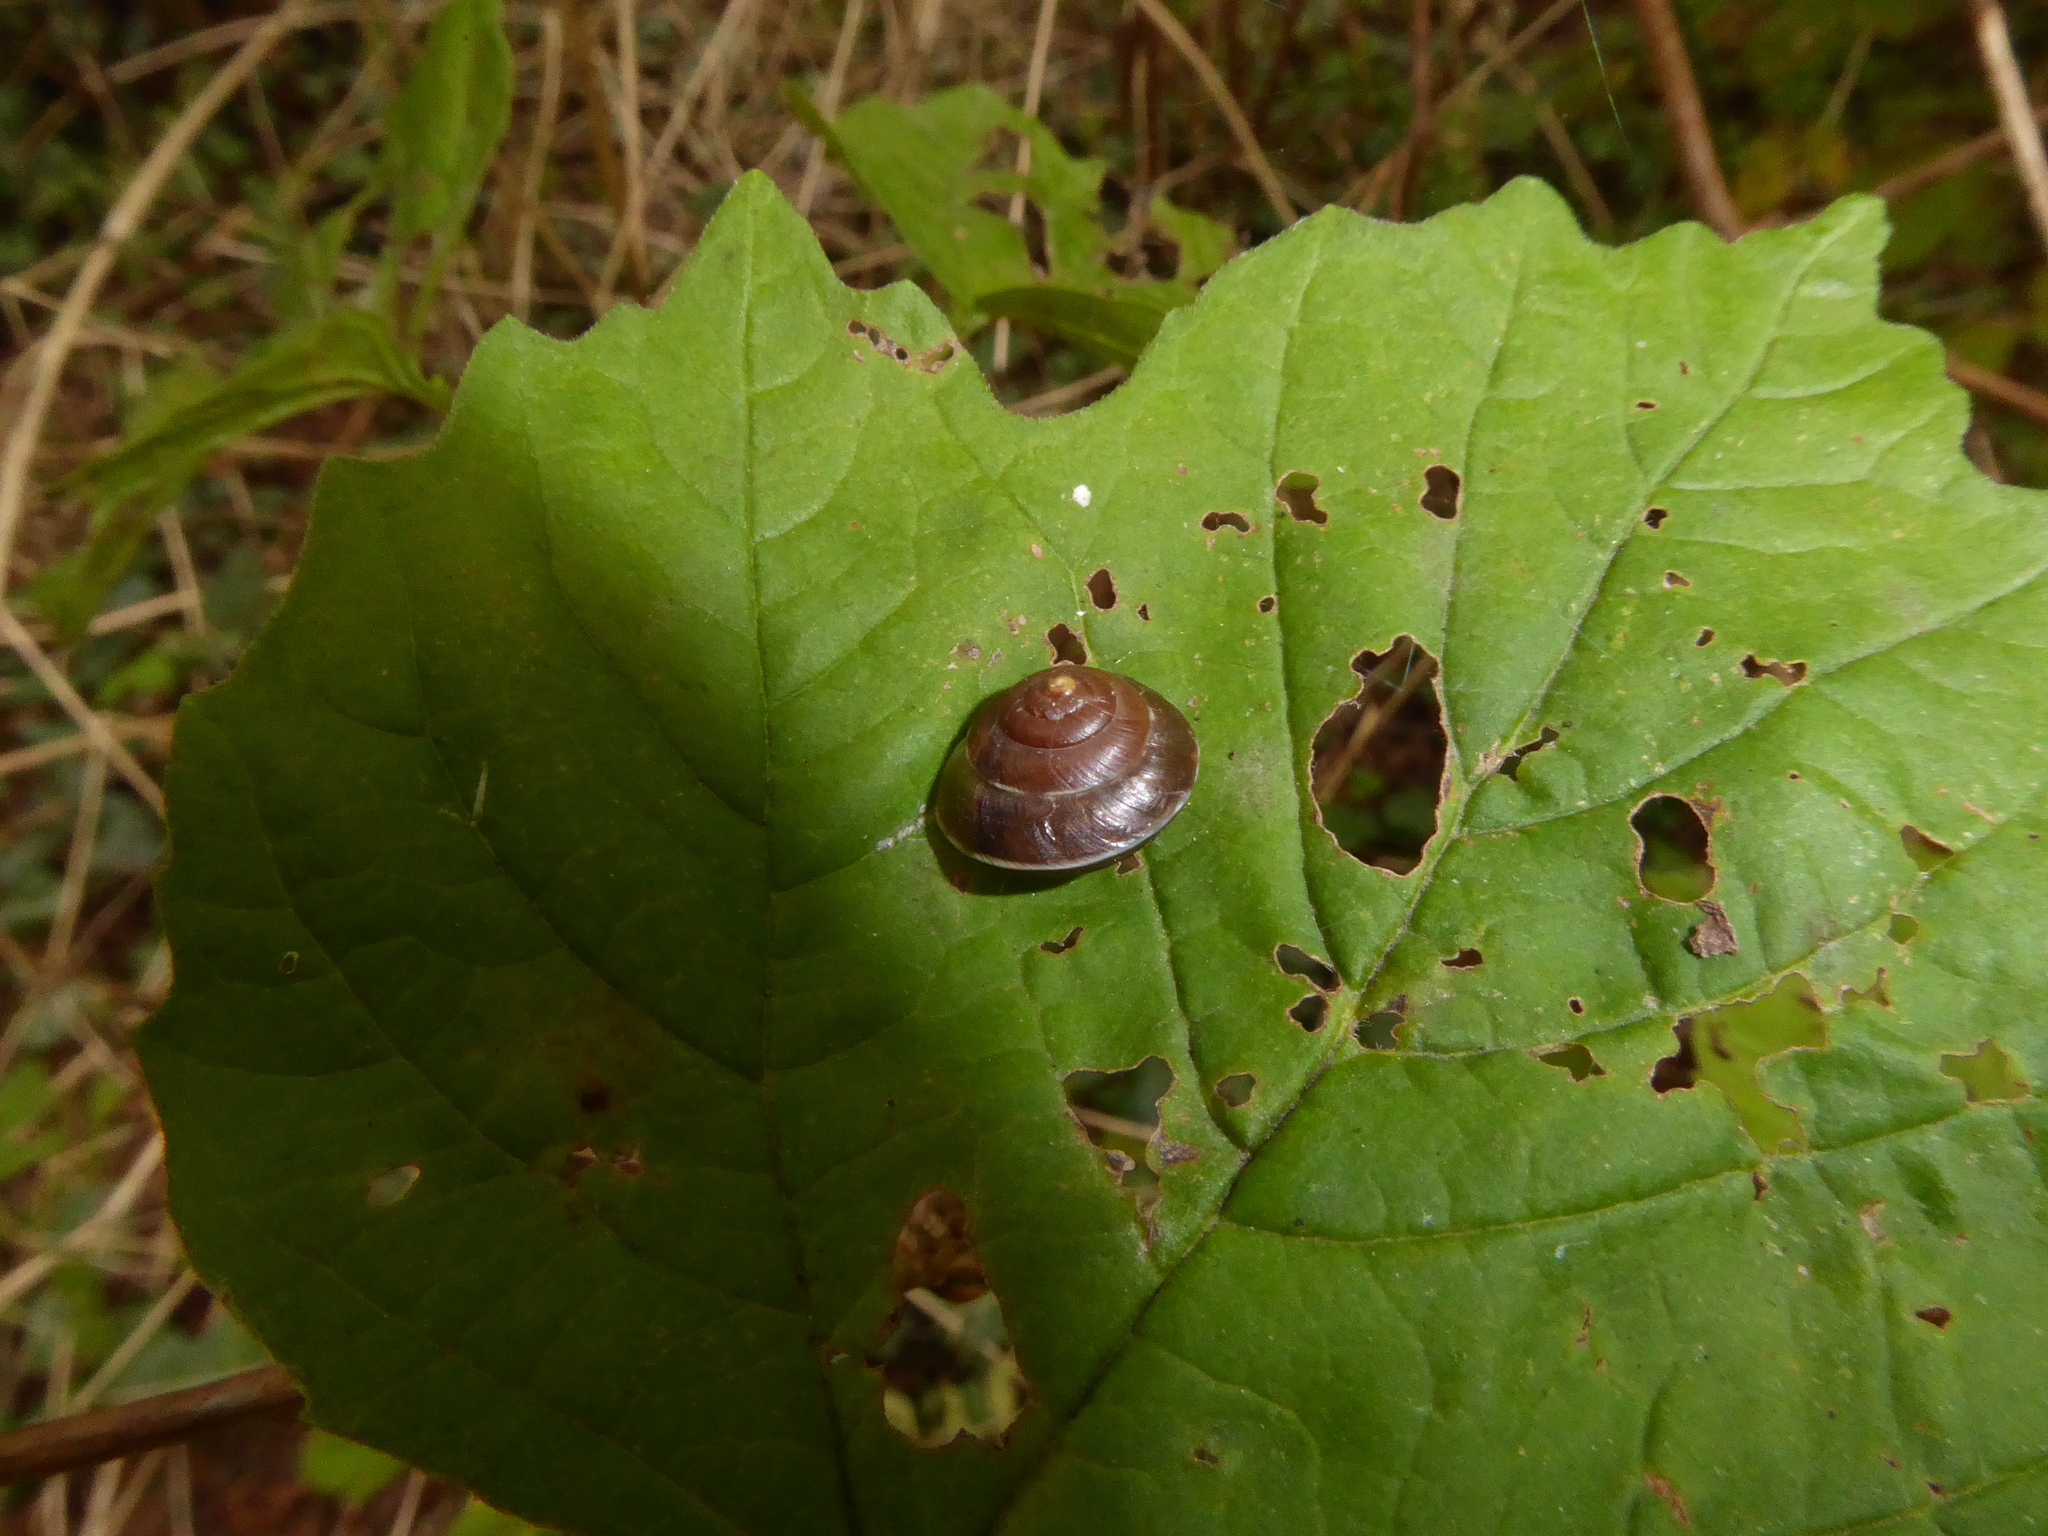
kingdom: Animalia
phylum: Mollusca
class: Gastropoda
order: Stylommatophora
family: Hygromiidae
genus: Hygromia
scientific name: Hygromia cinctella
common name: Girdled snail
